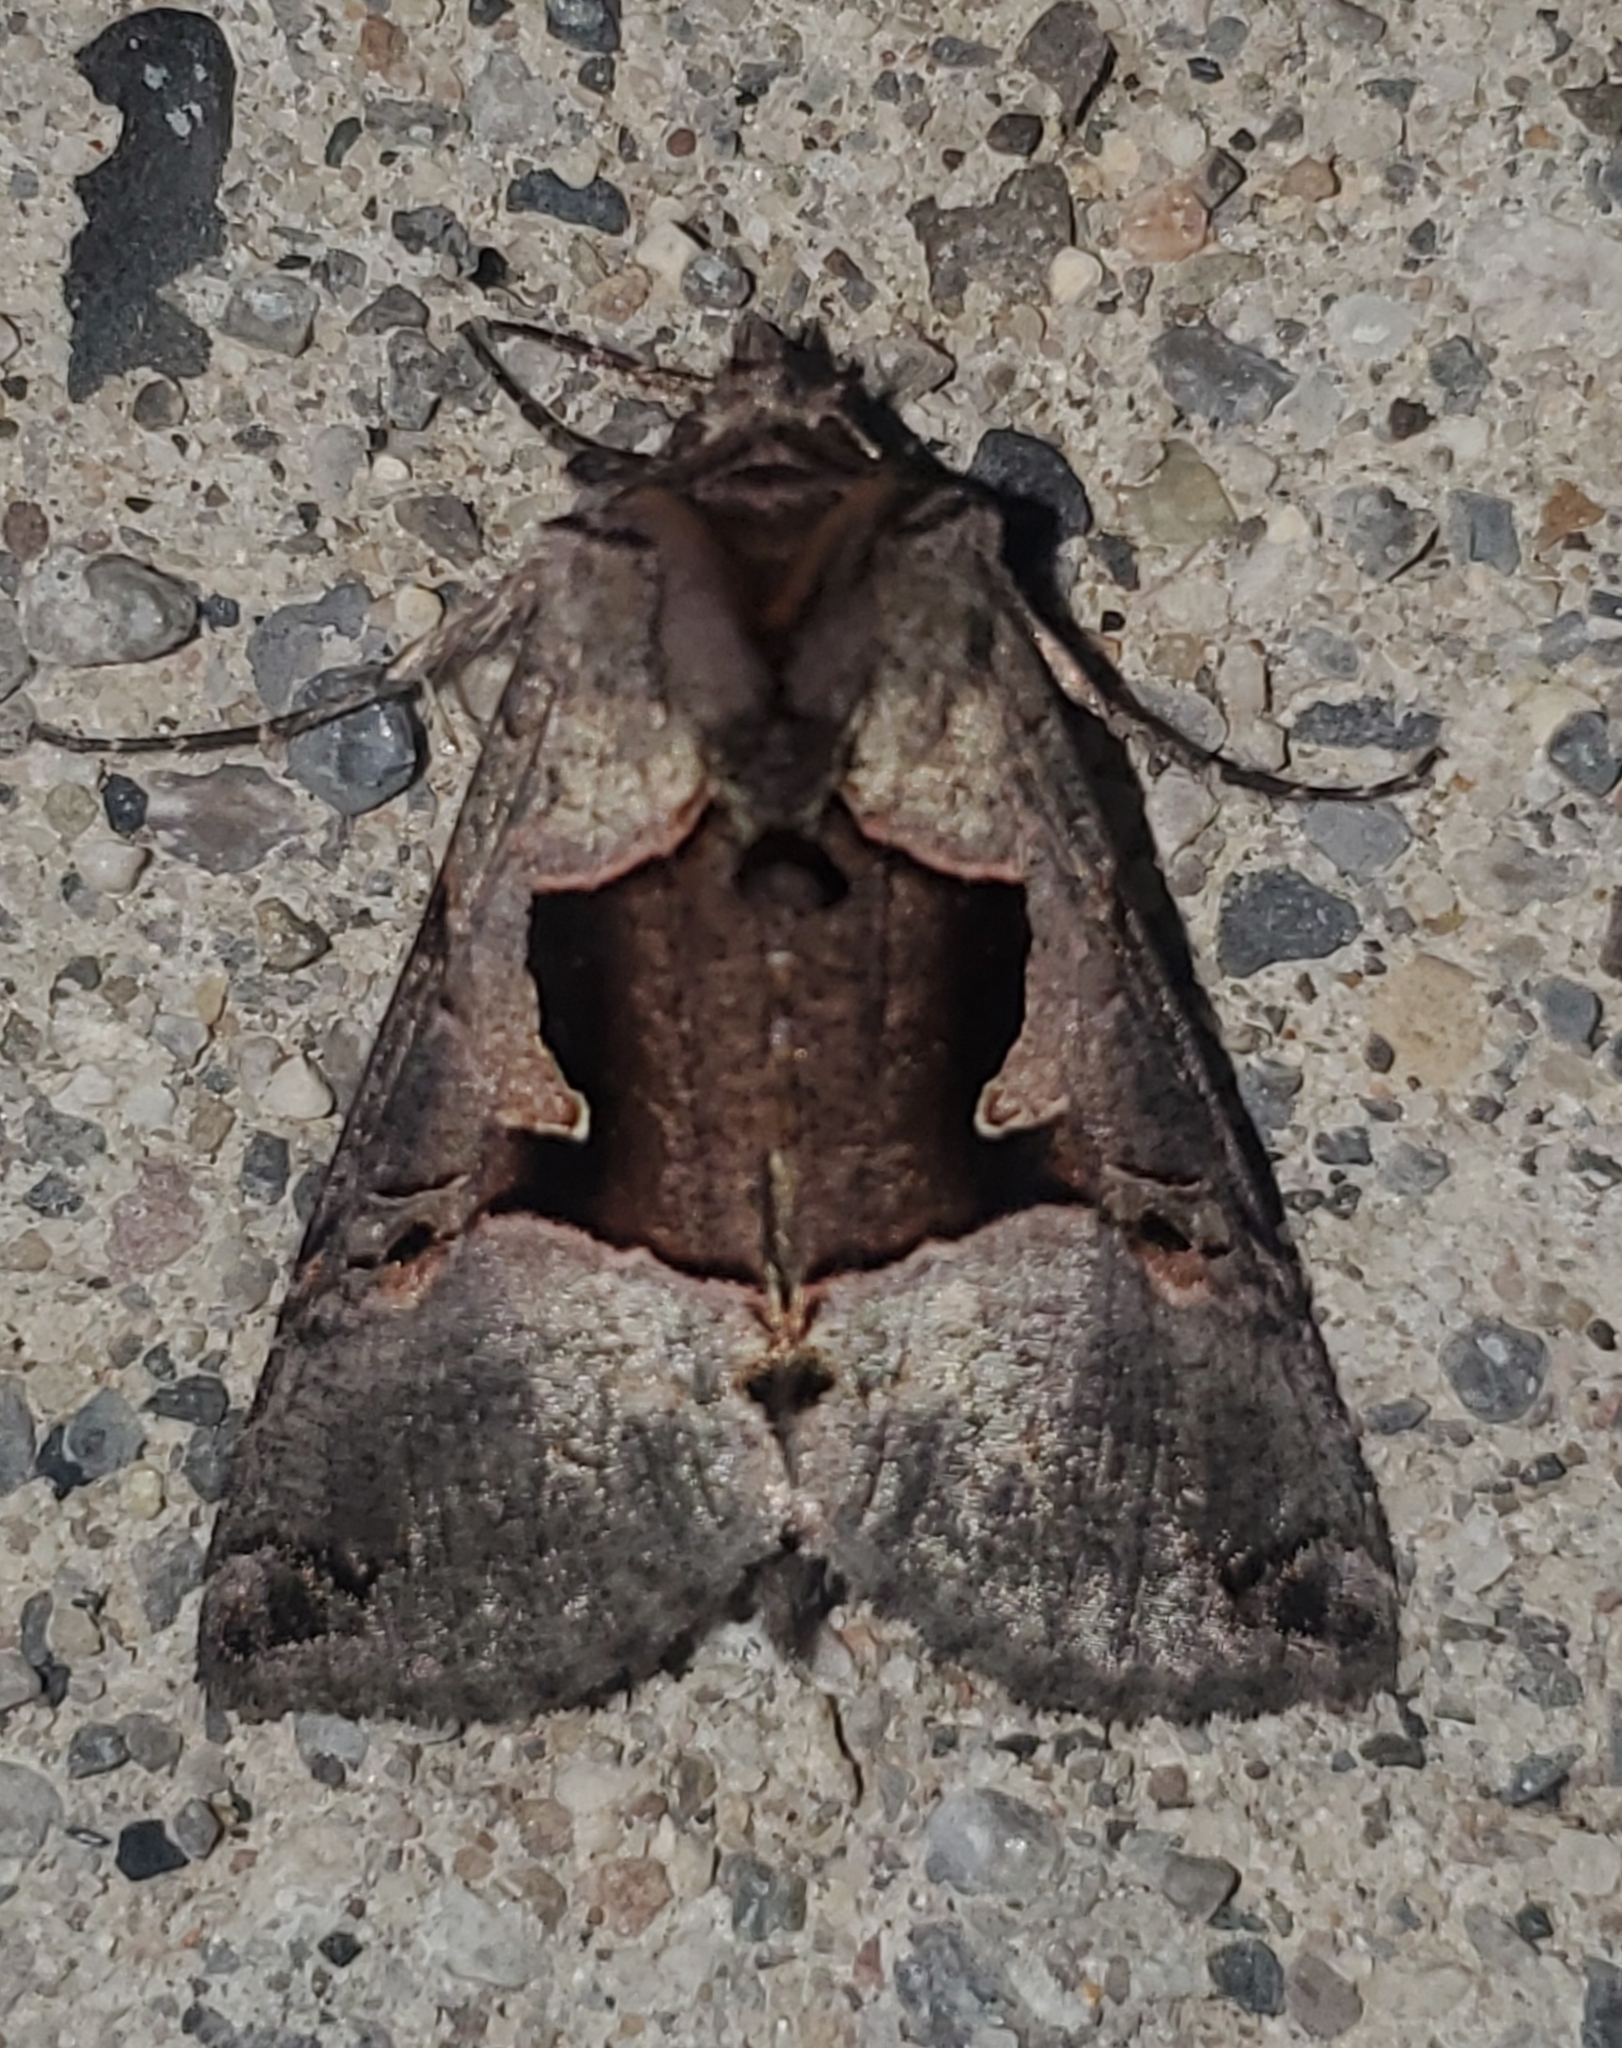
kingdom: Animalia
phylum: Arthropoda
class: Insecta
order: Lepidoptera
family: Noctuidae
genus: Autographa
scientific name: Autographa ampla
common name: Large looper moth
